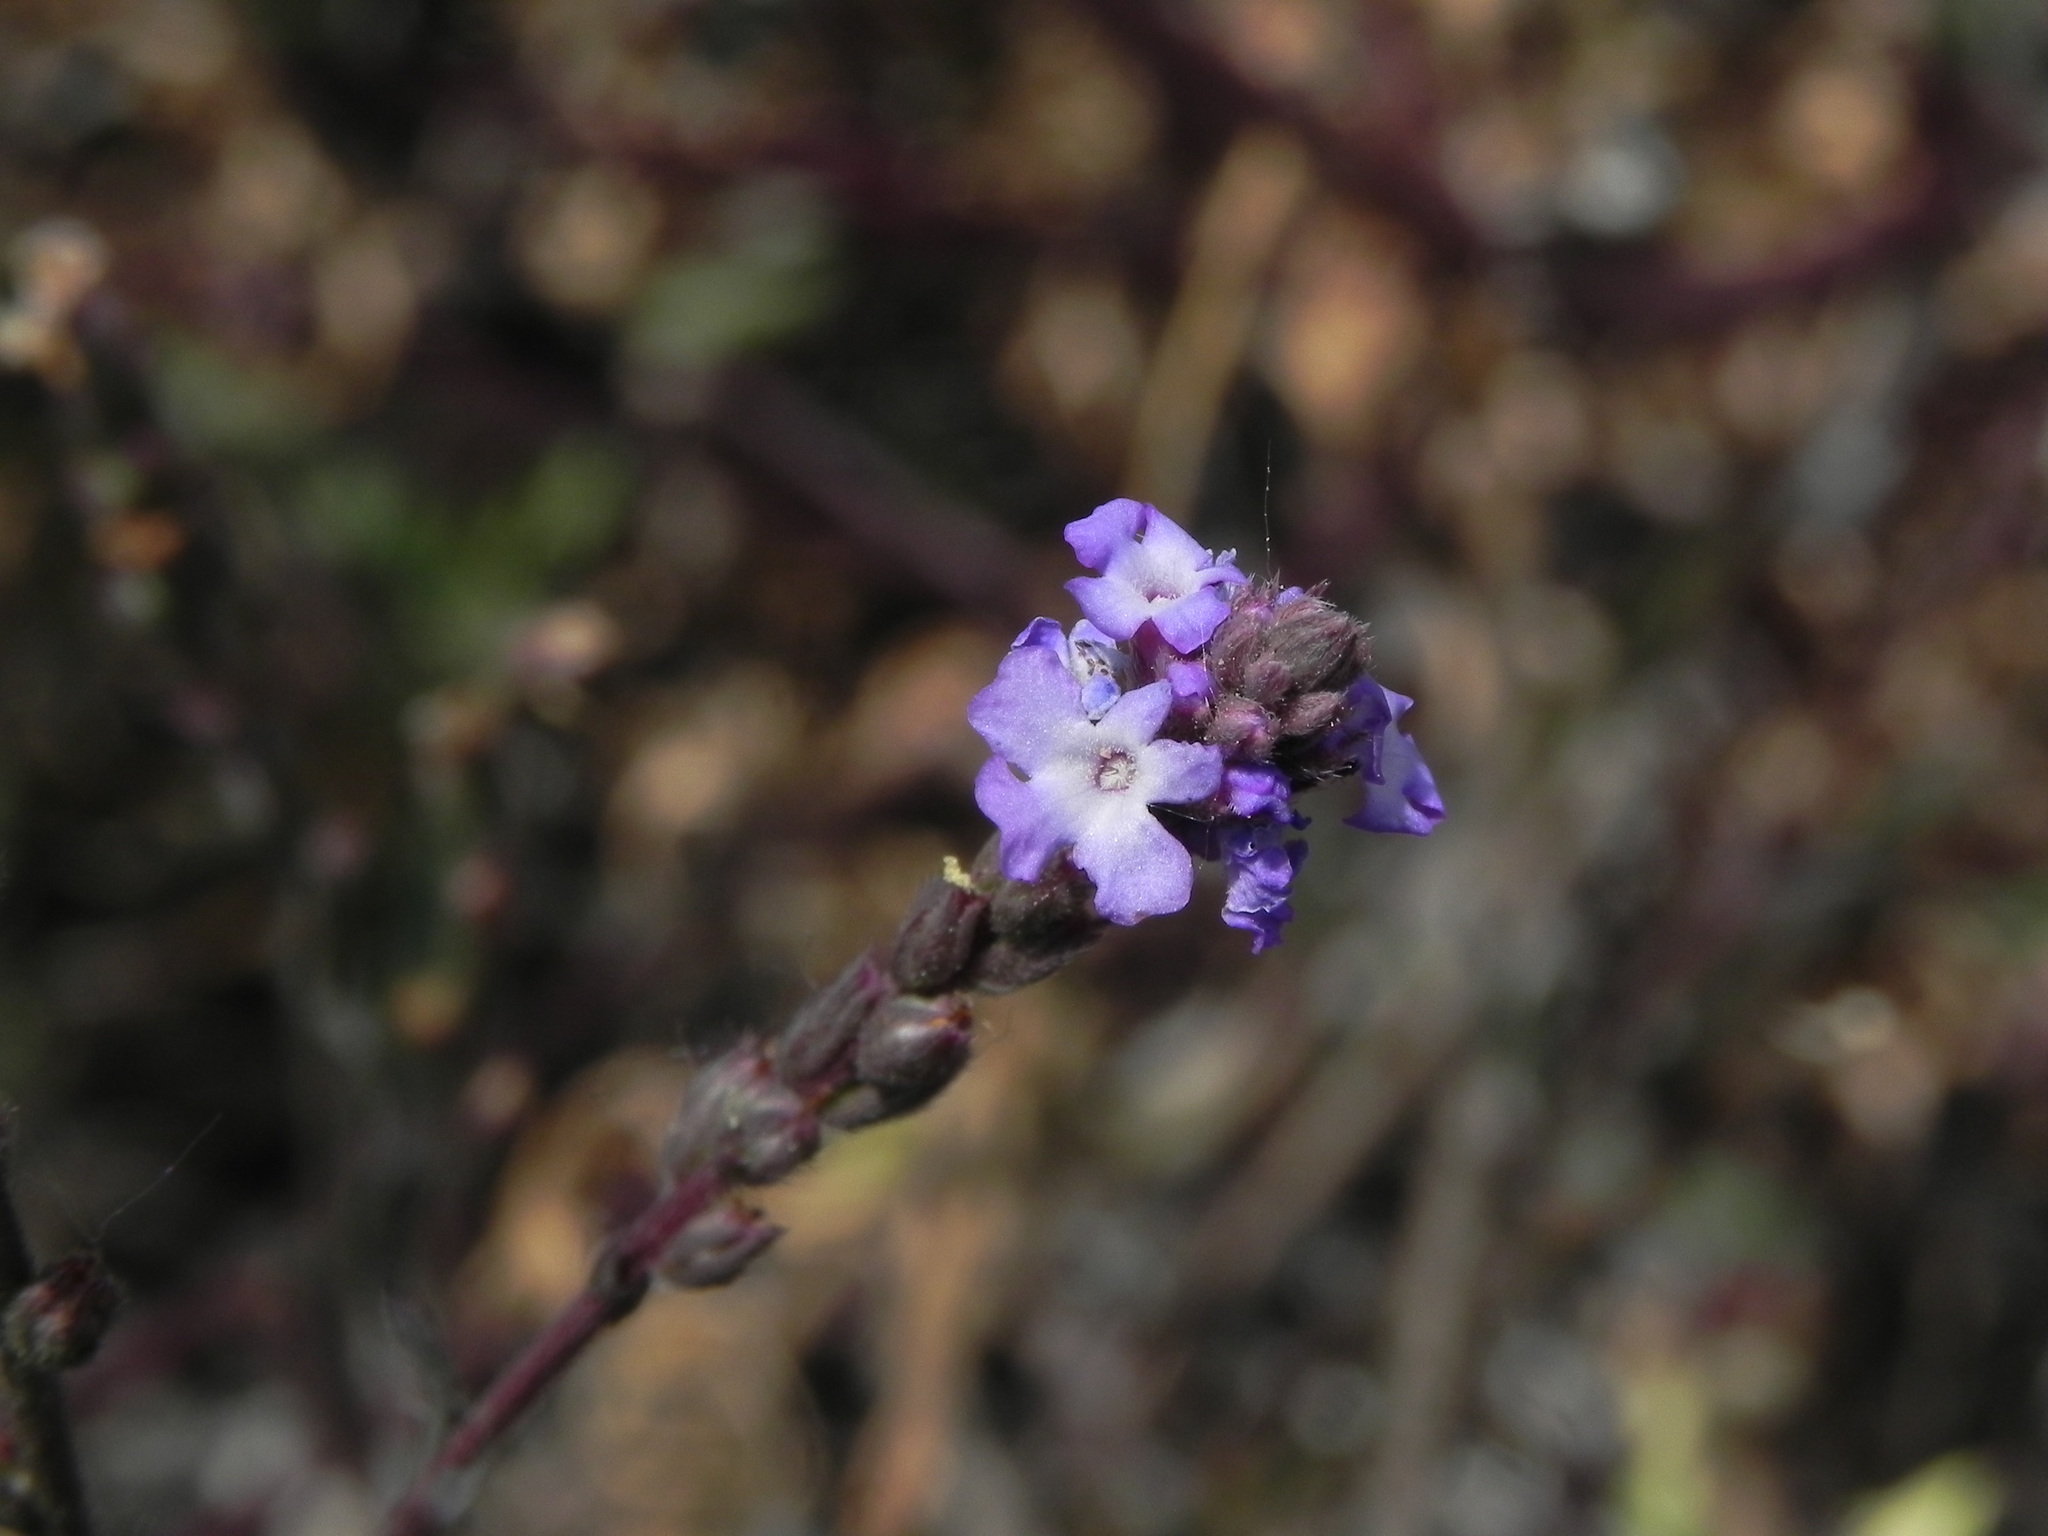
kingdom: Plantae
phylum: Tracheophyta
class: Magnoliopsida
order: Lamiales
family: Verbenaceae
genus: Verbena
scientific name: Verbena menthifolia
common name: Mint-leaf vervain
